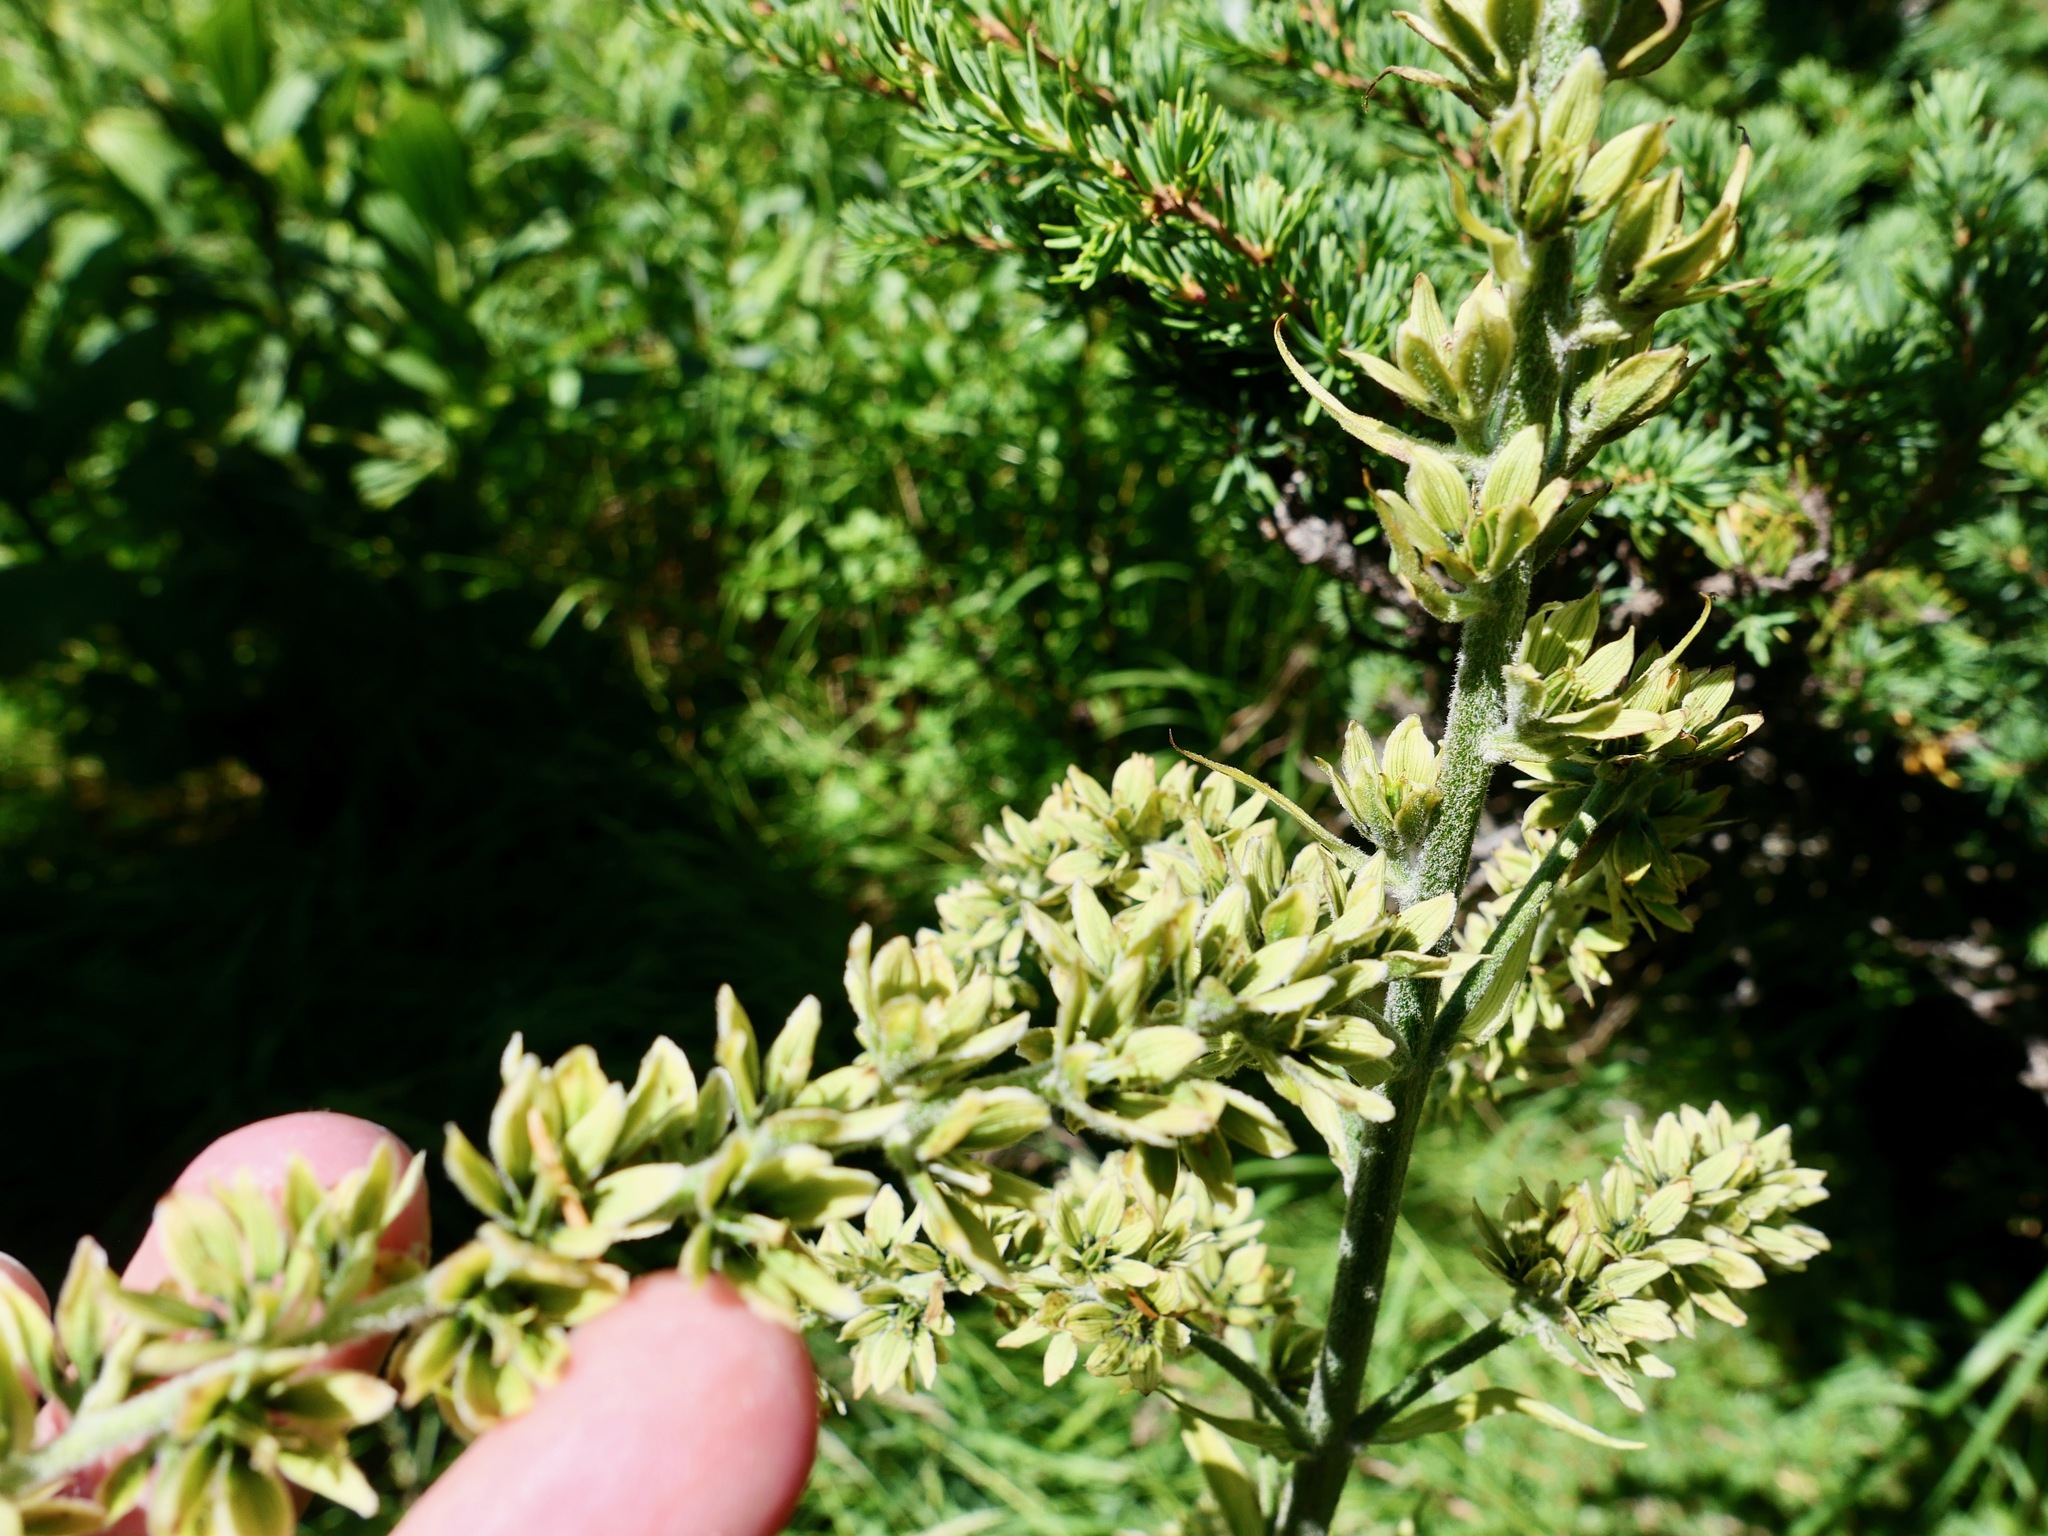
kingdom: Plantae
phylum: Tracheophyta
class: Liliopsida
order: Liliales
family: Melanthiaceae
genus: Veratrum
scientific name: Veratrum viride
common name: American false hellebore
